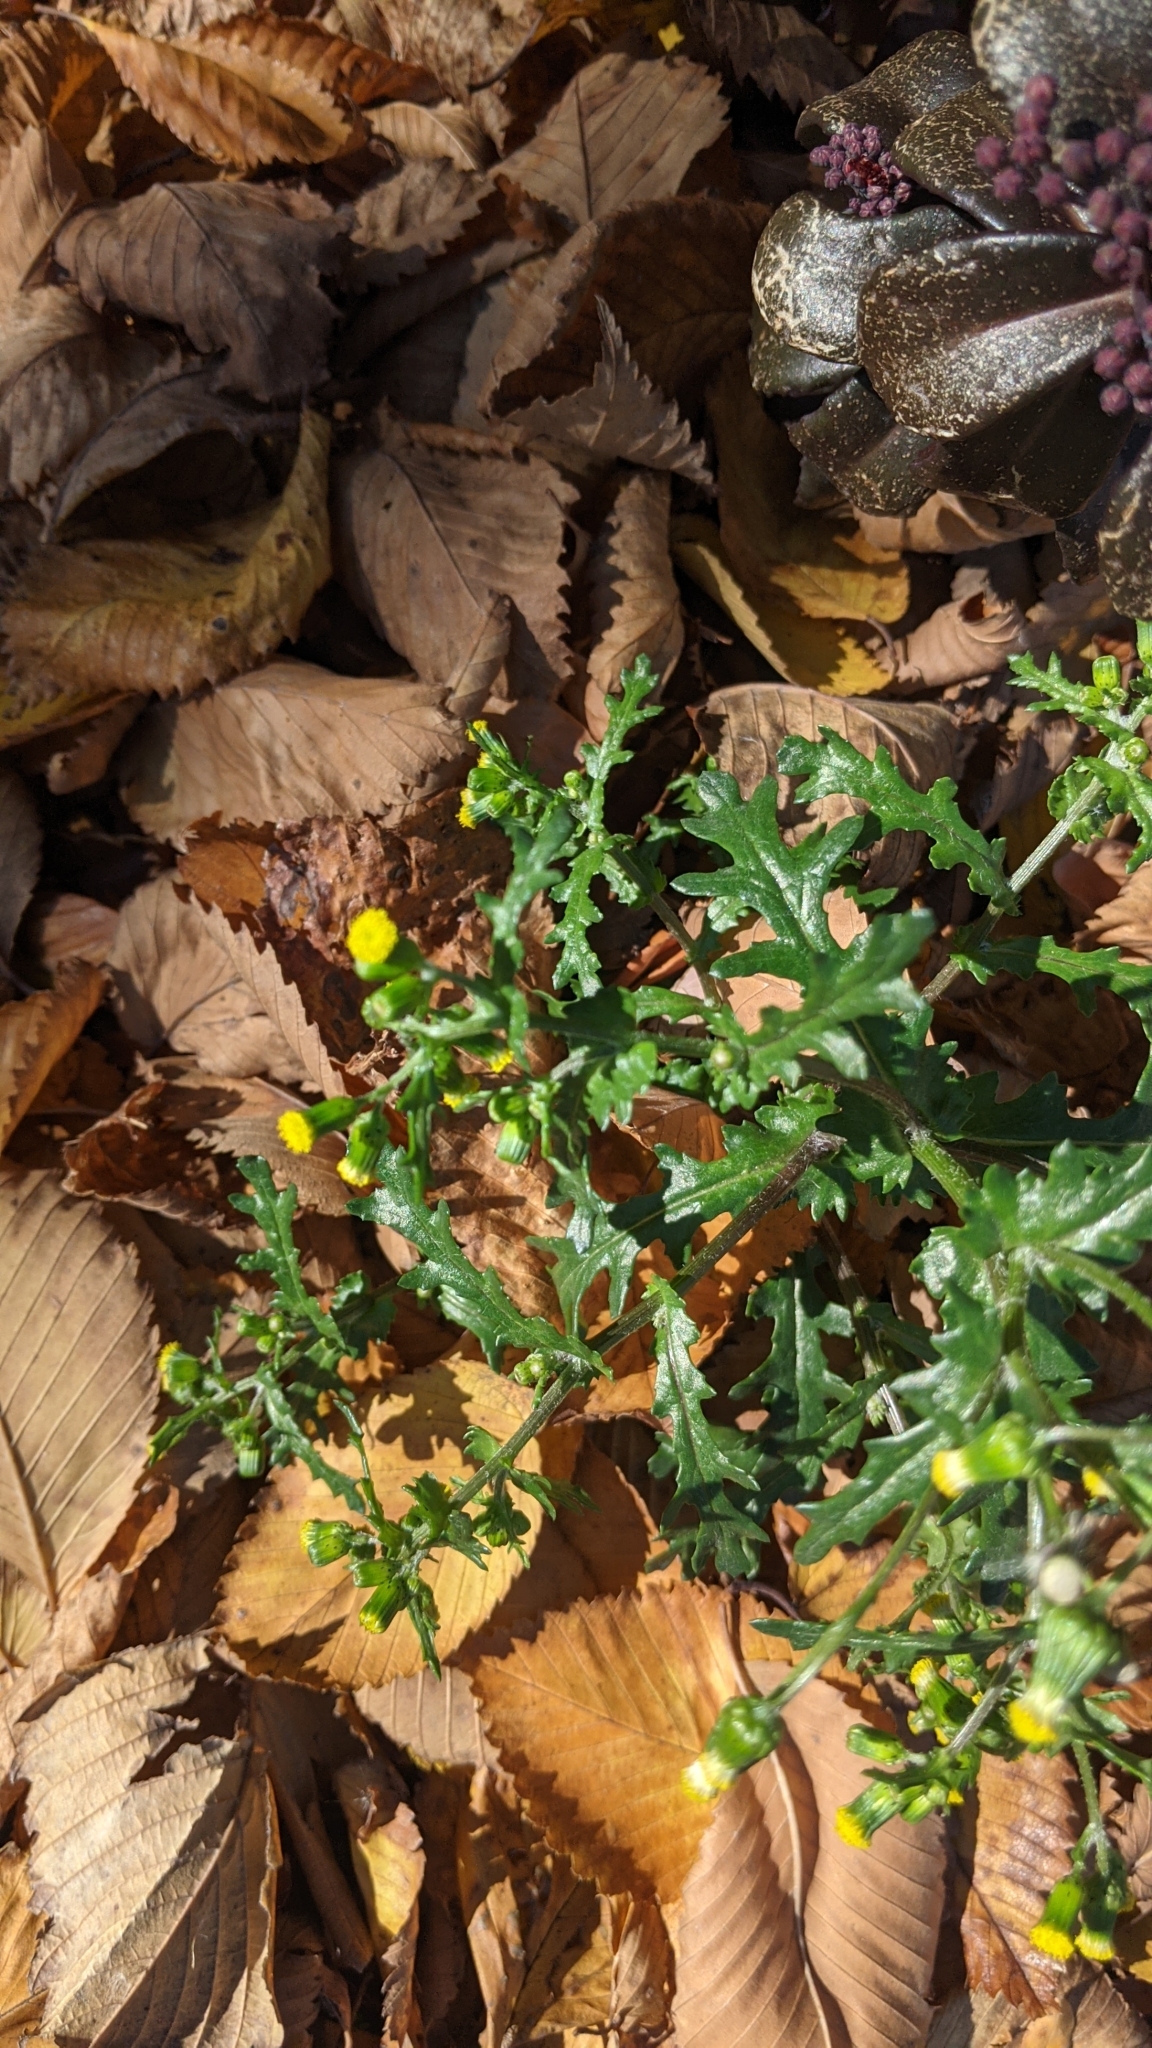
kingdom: Plantae
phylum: Tracheophyta
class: Magnoliopsida
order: Asterales
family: Asteraceae
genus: Senecio
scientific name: Senecio vulgaris
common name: Old-man-in-the-spring
